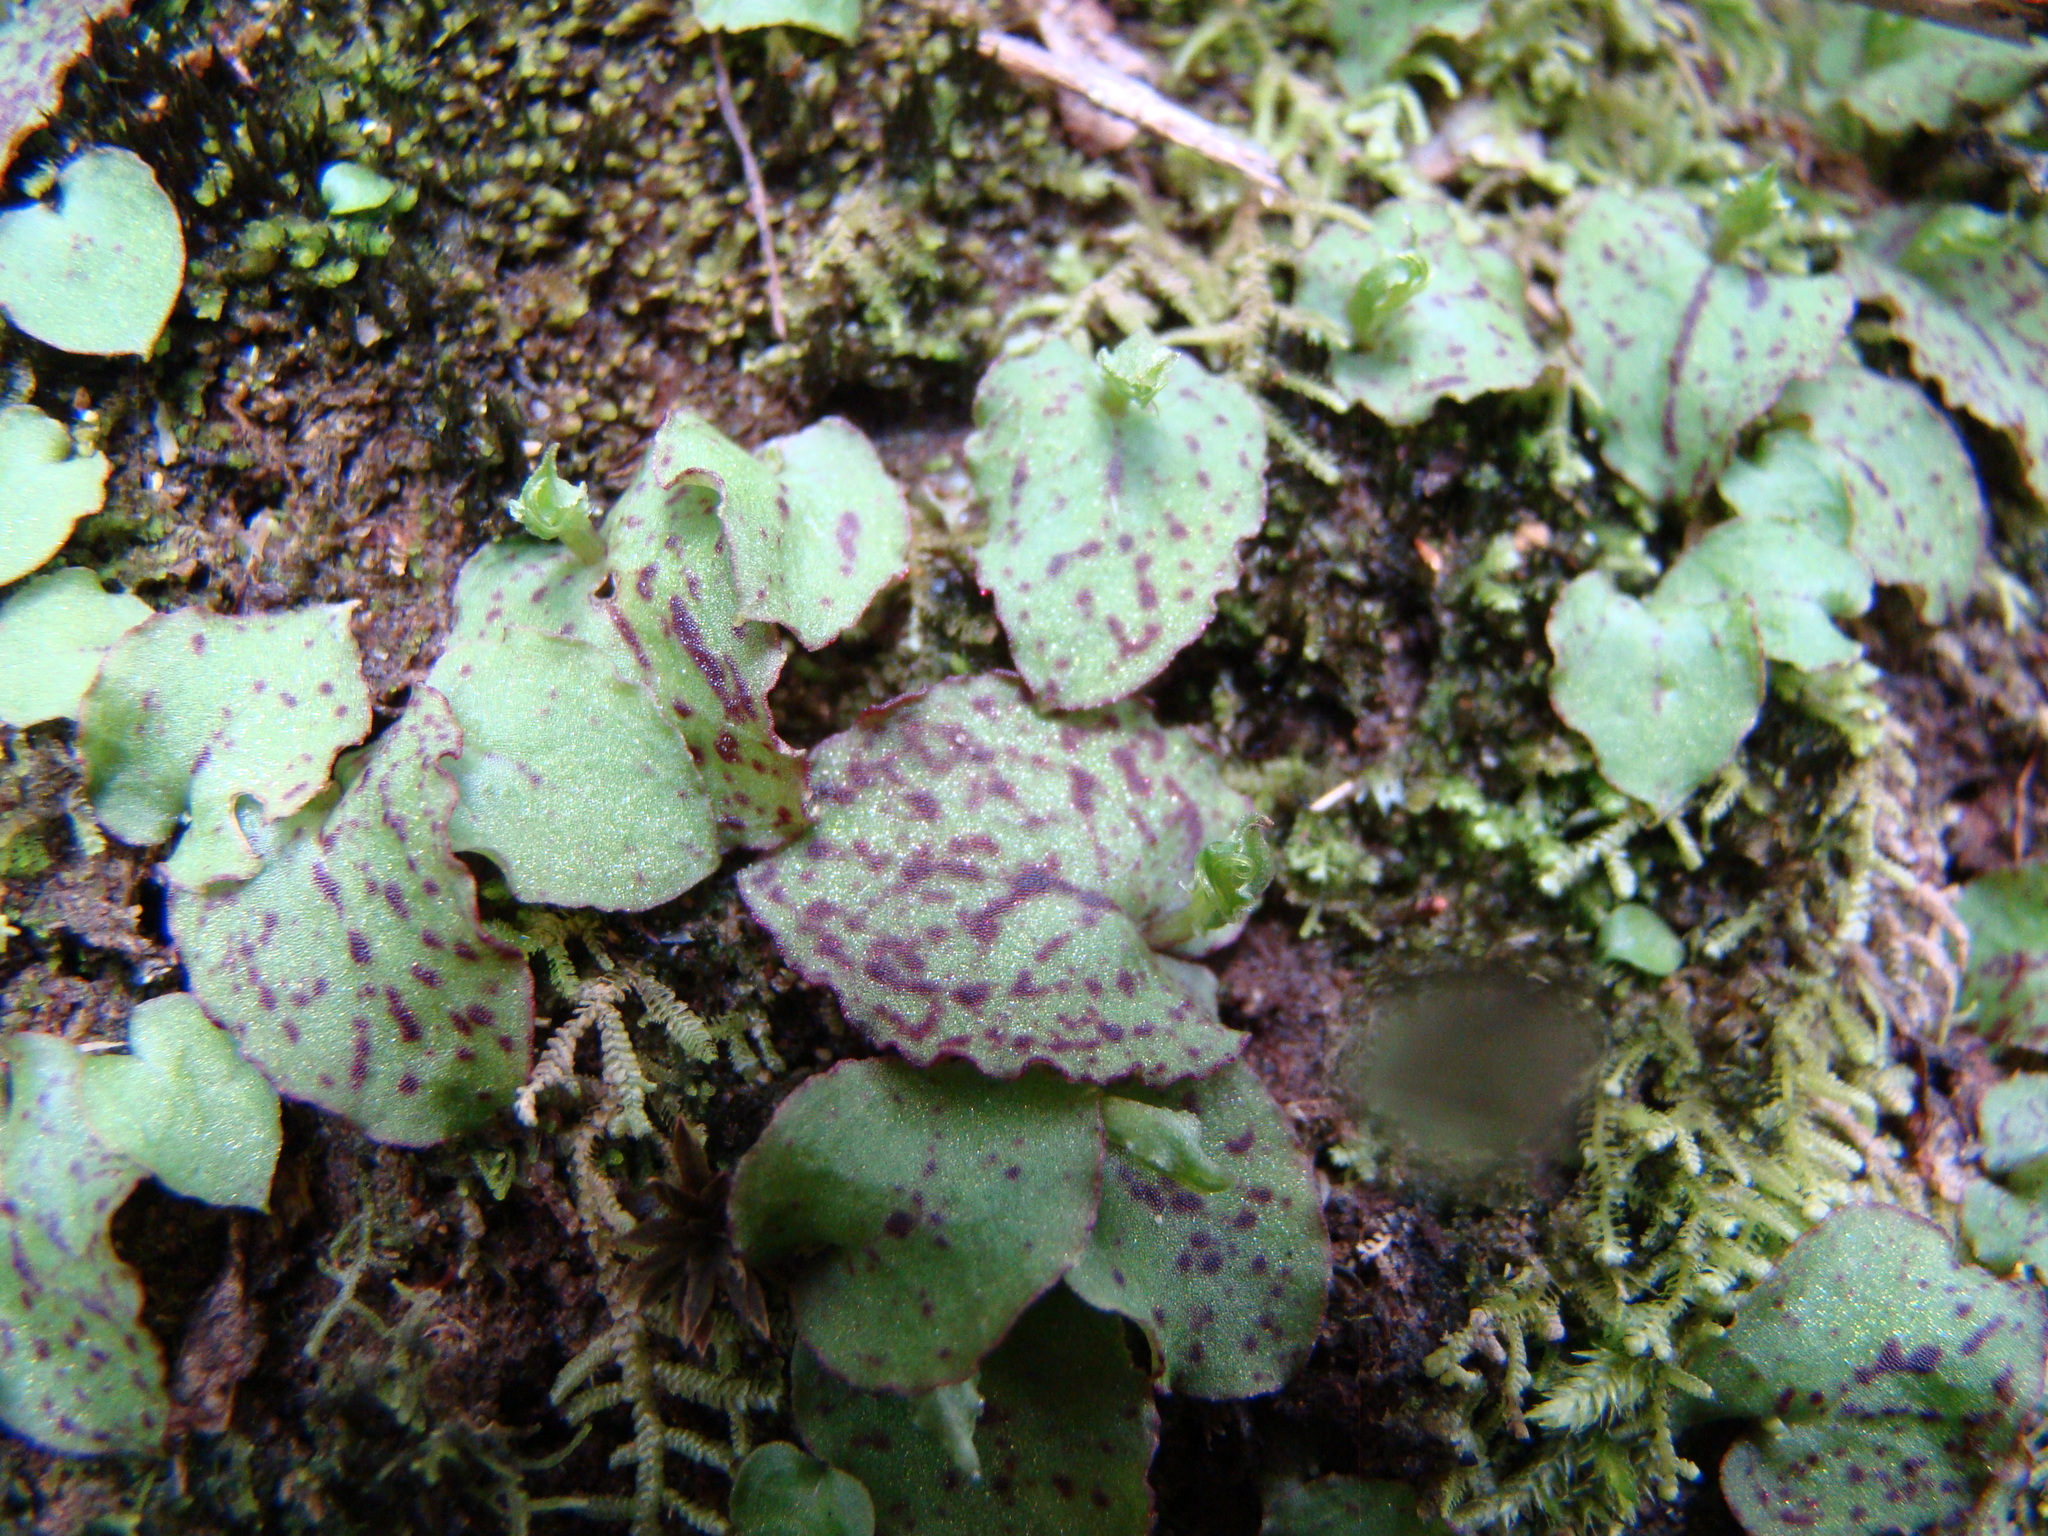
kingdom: Plantae
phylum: Tracheophyta
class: Liliopsida
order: Asparagales
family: Orchidaceae
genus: Corybas
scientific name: Corybas oblongus
